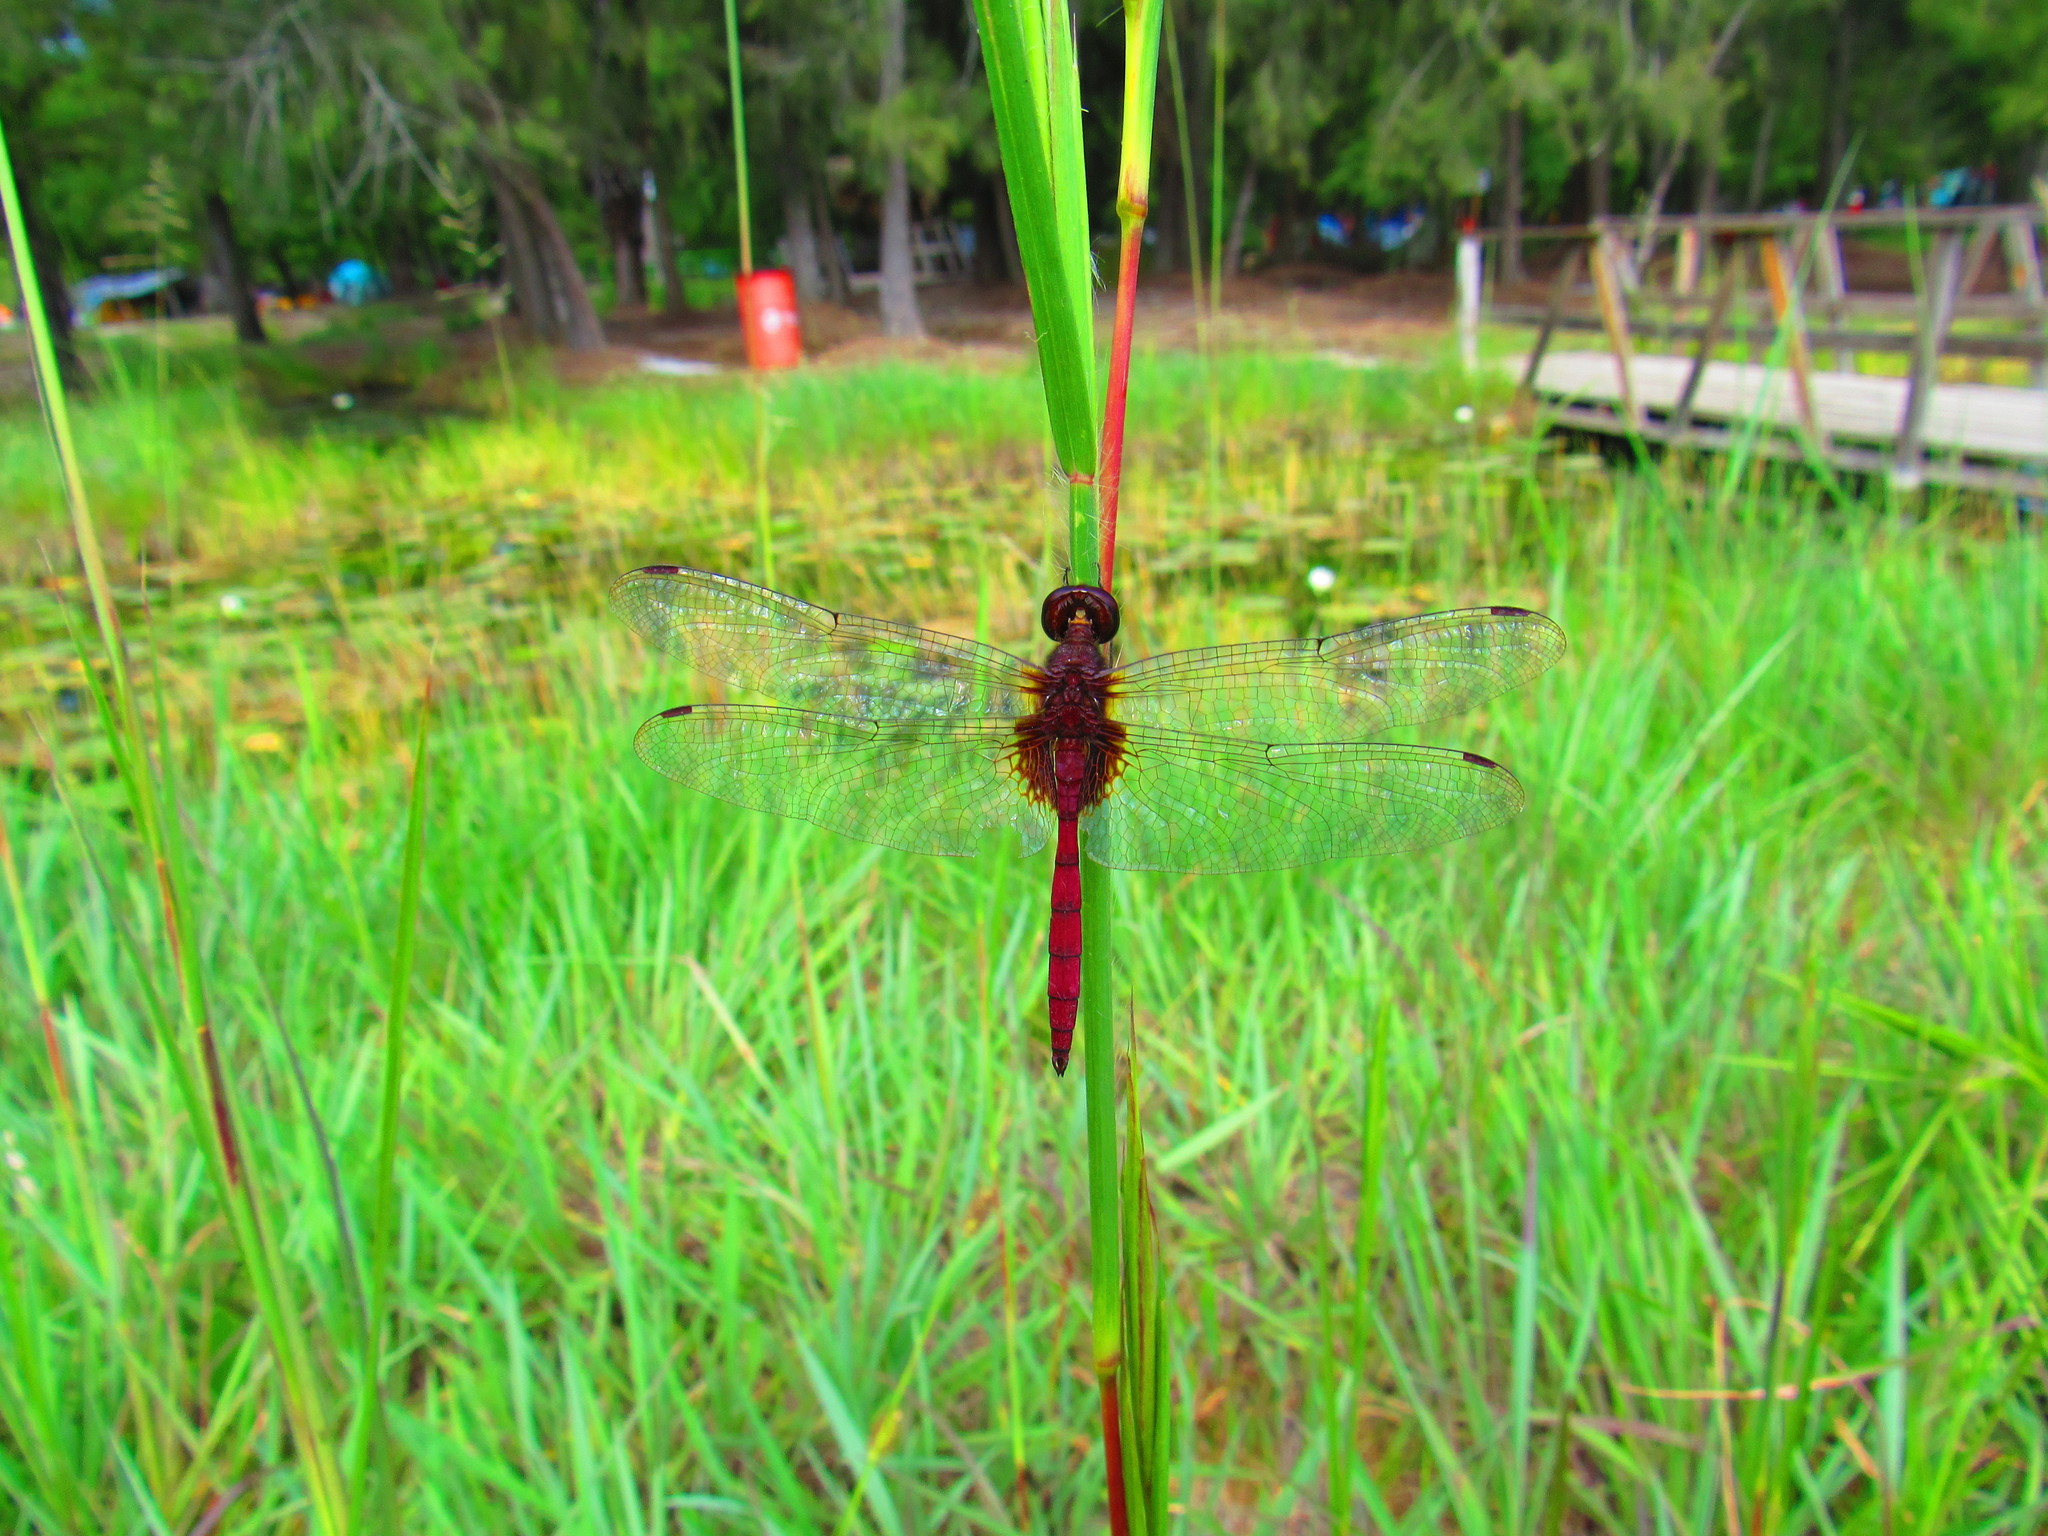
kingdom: Animalia
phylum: Arthropoda
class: Insecta
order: Odonata
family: Libellulidae
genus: Tauriphila
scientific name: Tauriphila australis
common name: Garnet glider
